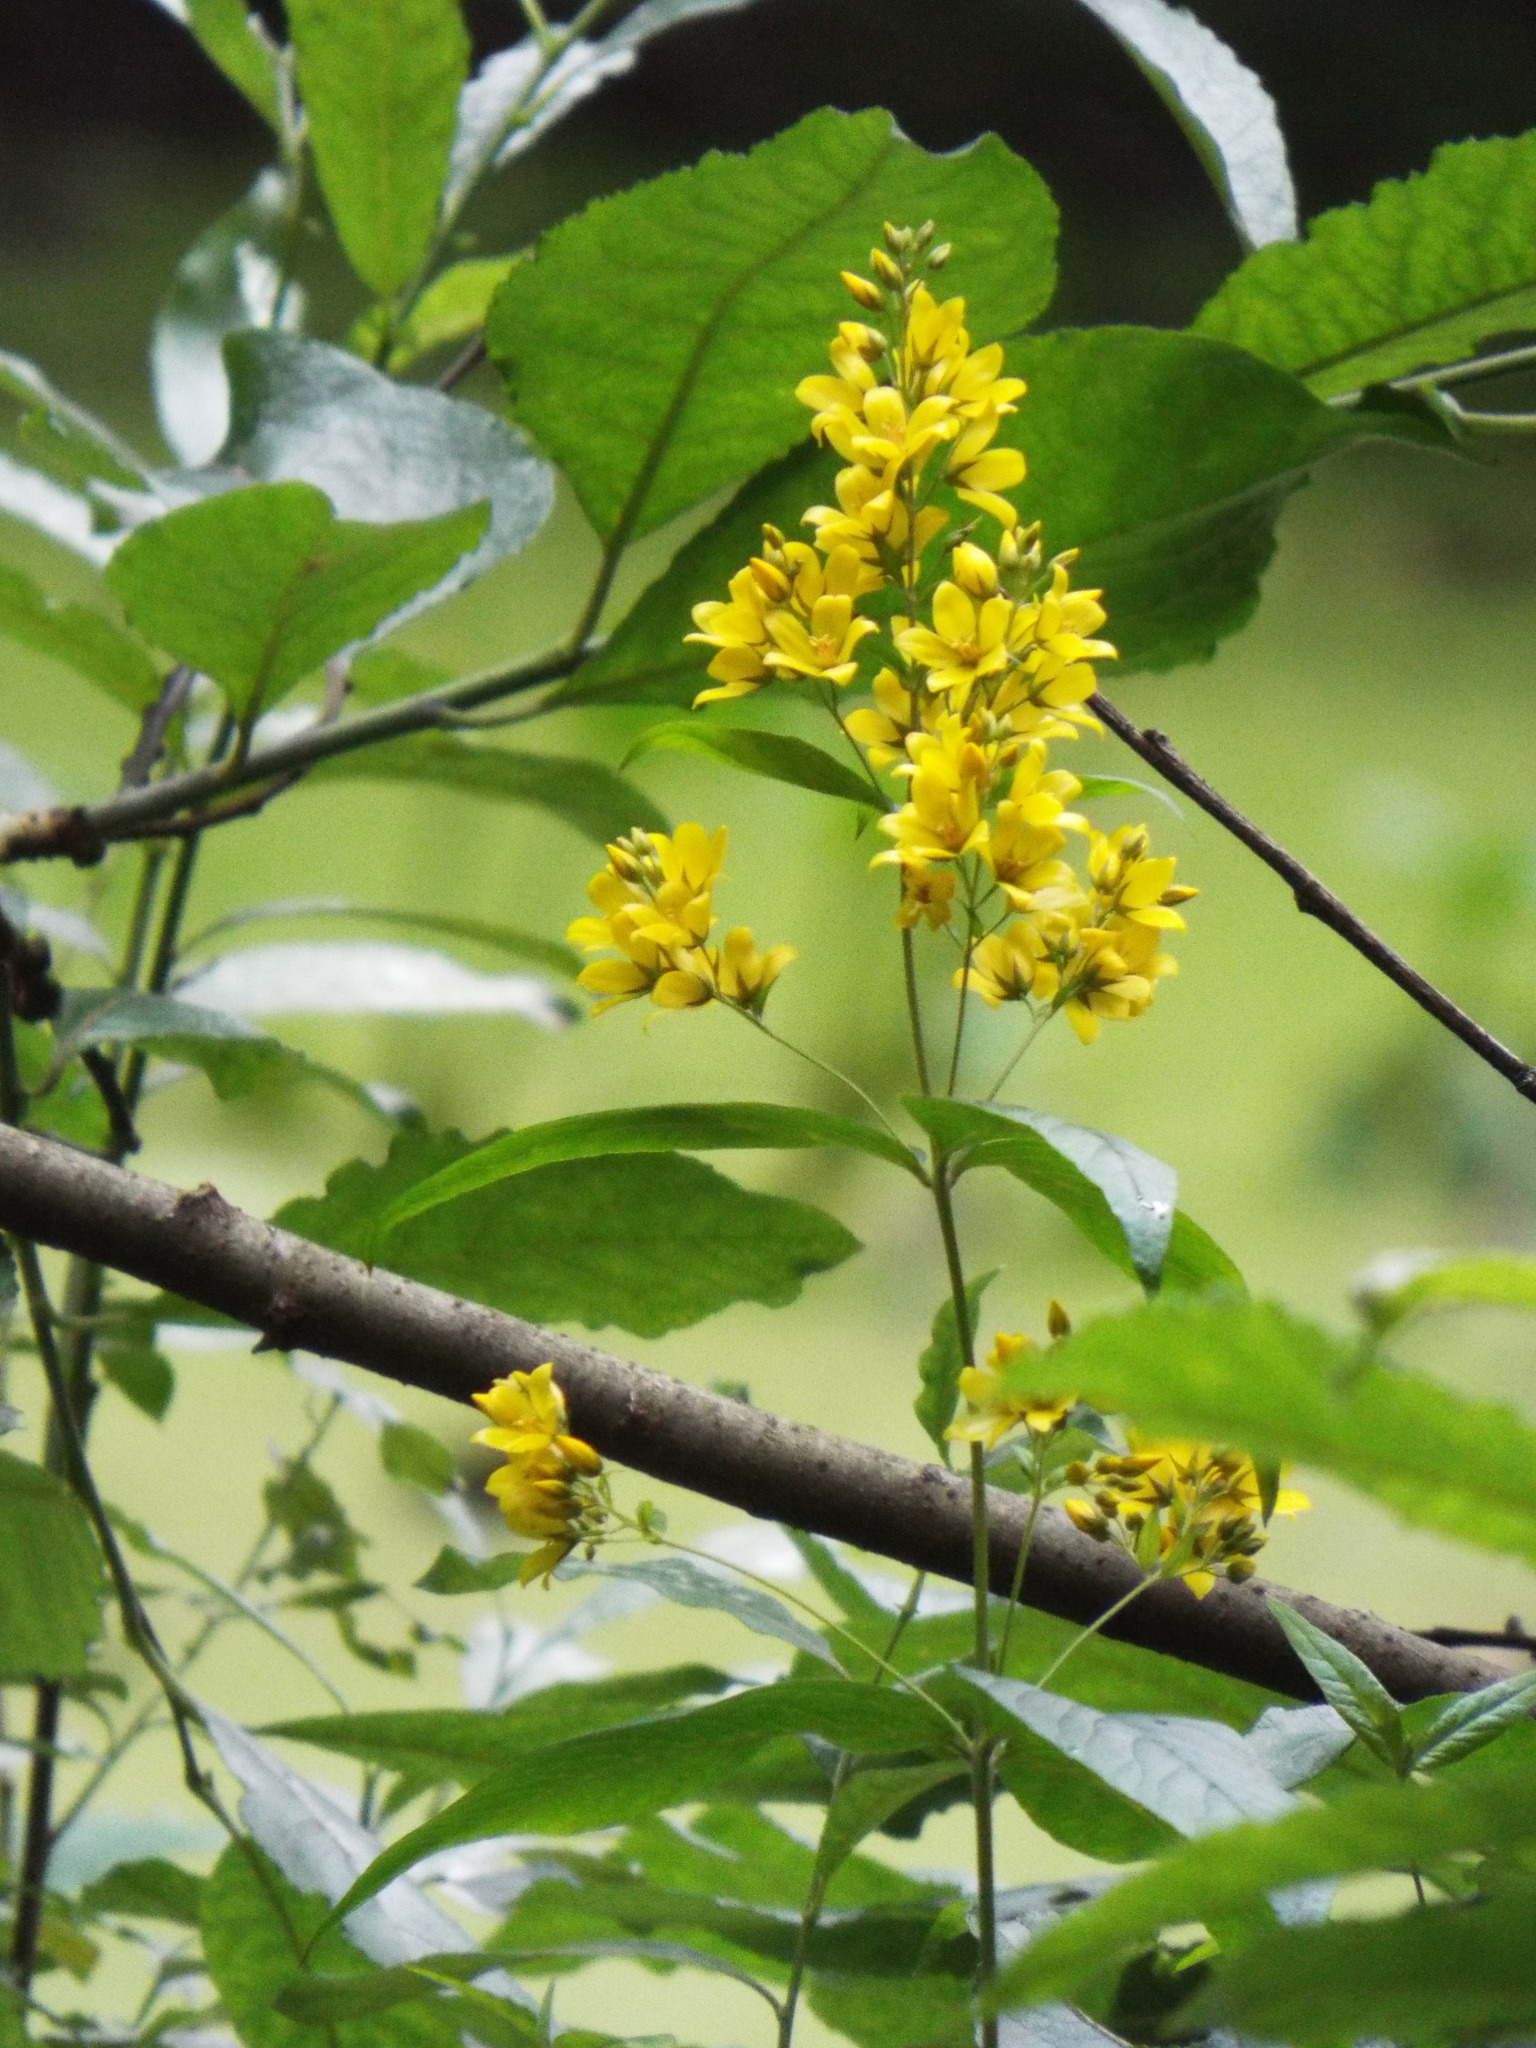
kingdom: Plantae
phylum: Tracheophyta
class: Magnoliopsida
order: Ericales
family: Primulaceae
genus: Lysimachia
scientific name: Lysimachia vulgaris
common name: Yellow loosestrife
